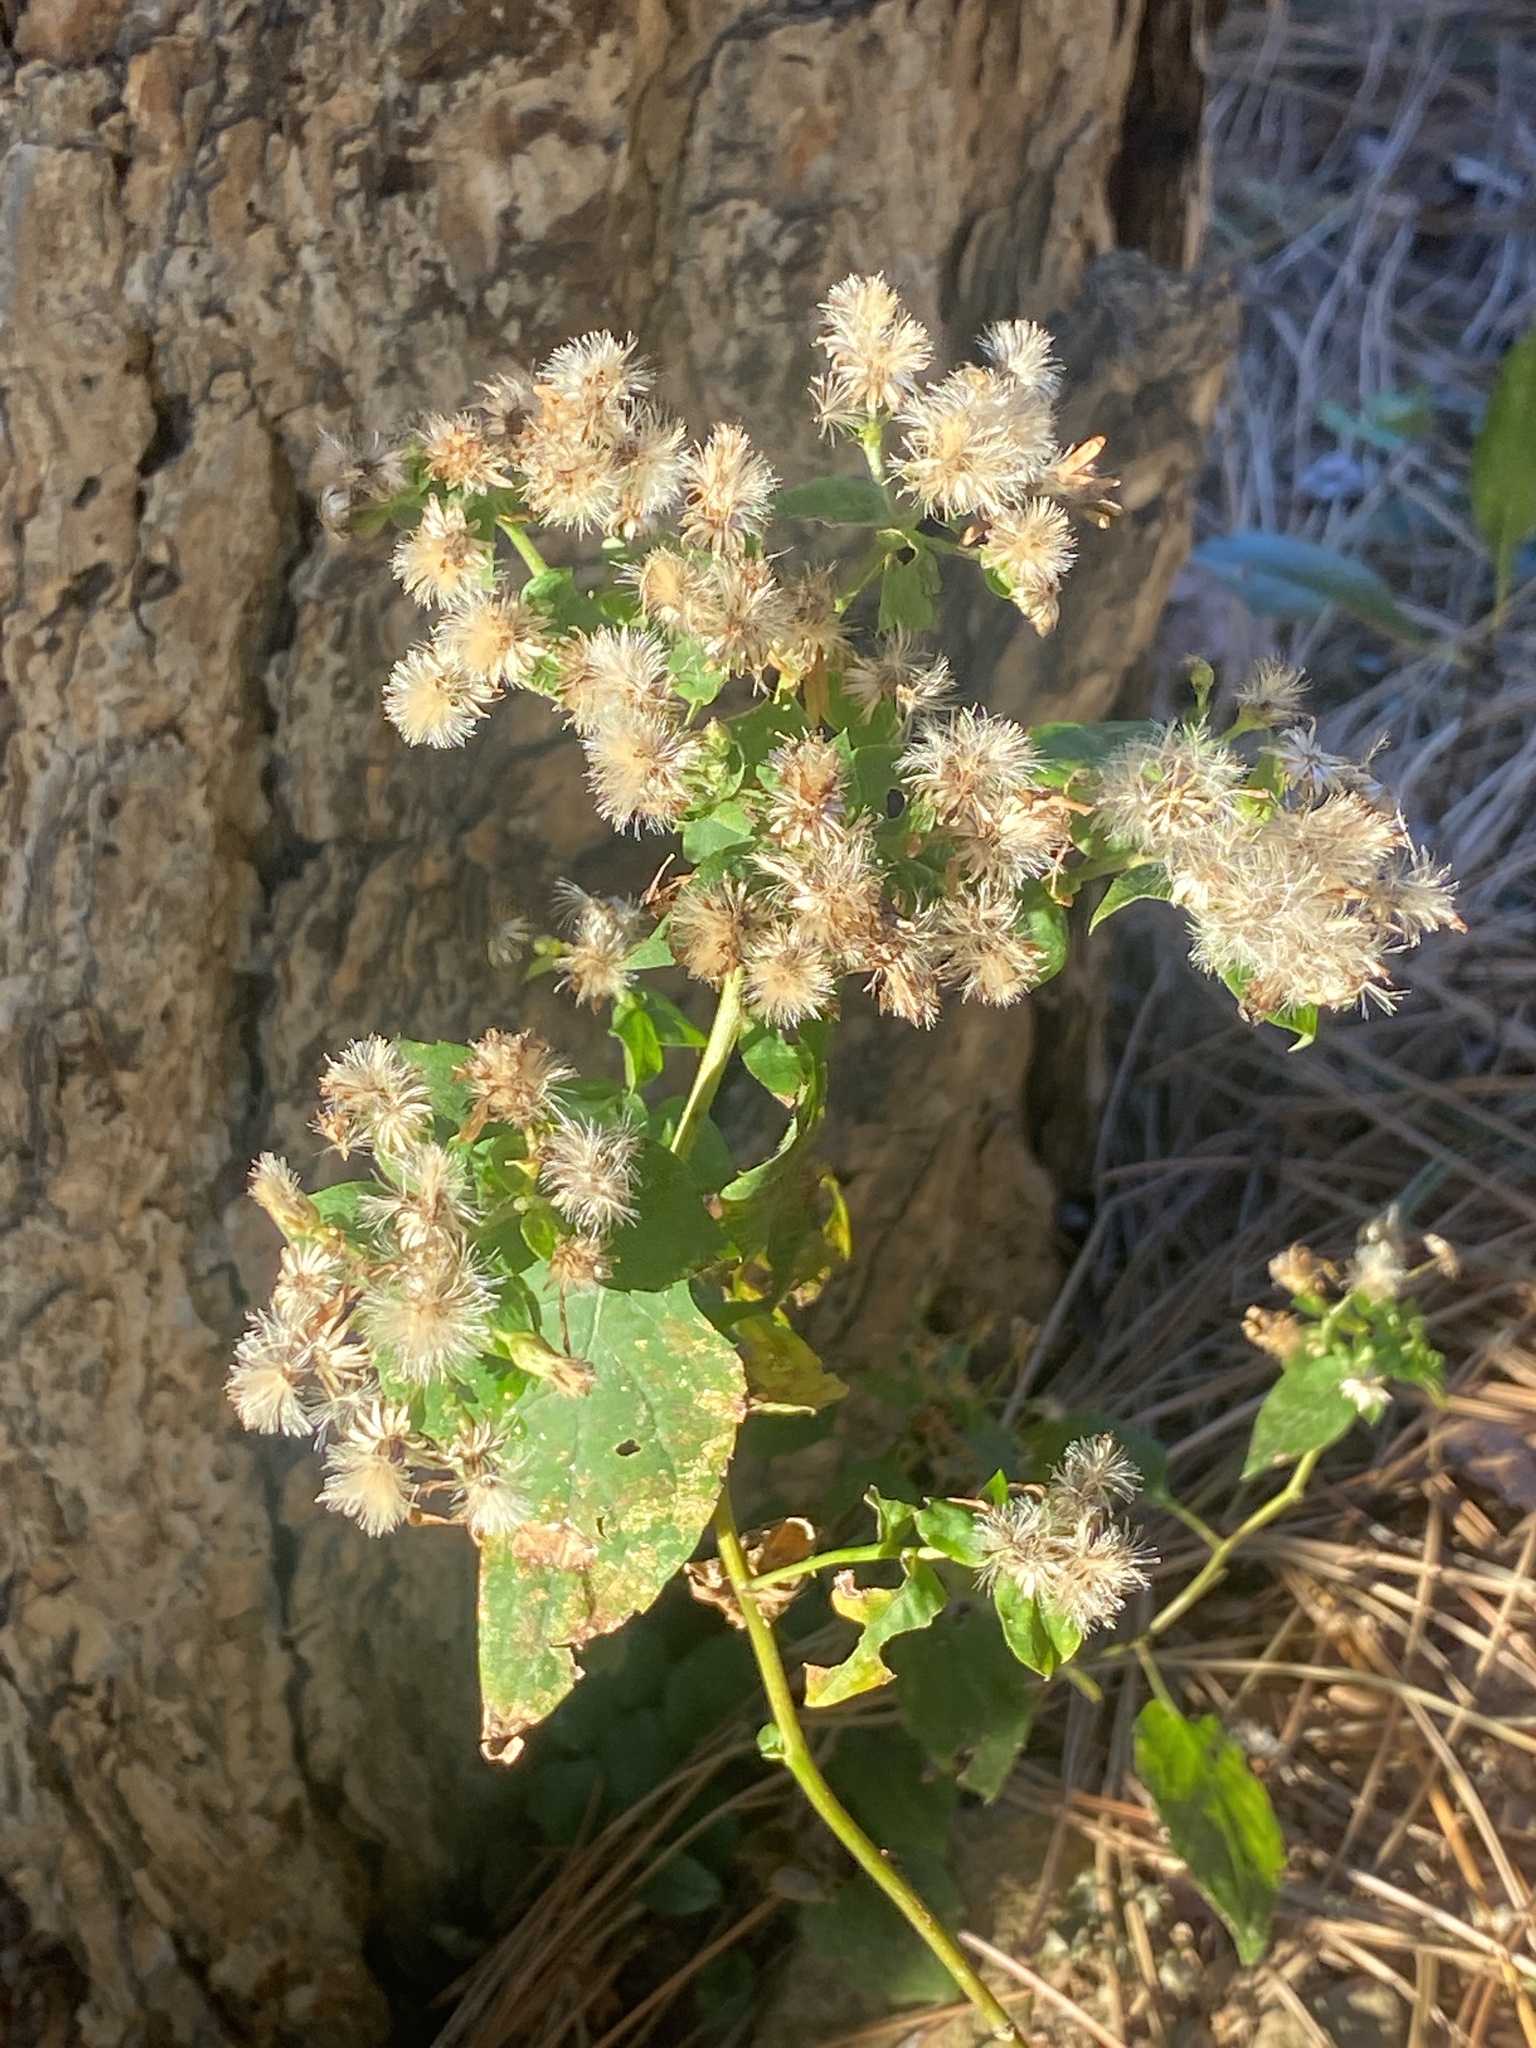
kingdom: Plantae
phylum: Tracheophyta
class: Magnoliopsida
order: Asterales
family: Asteraceae
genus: Eurybia
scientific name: Eurybia divaricata
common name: White wood aster
